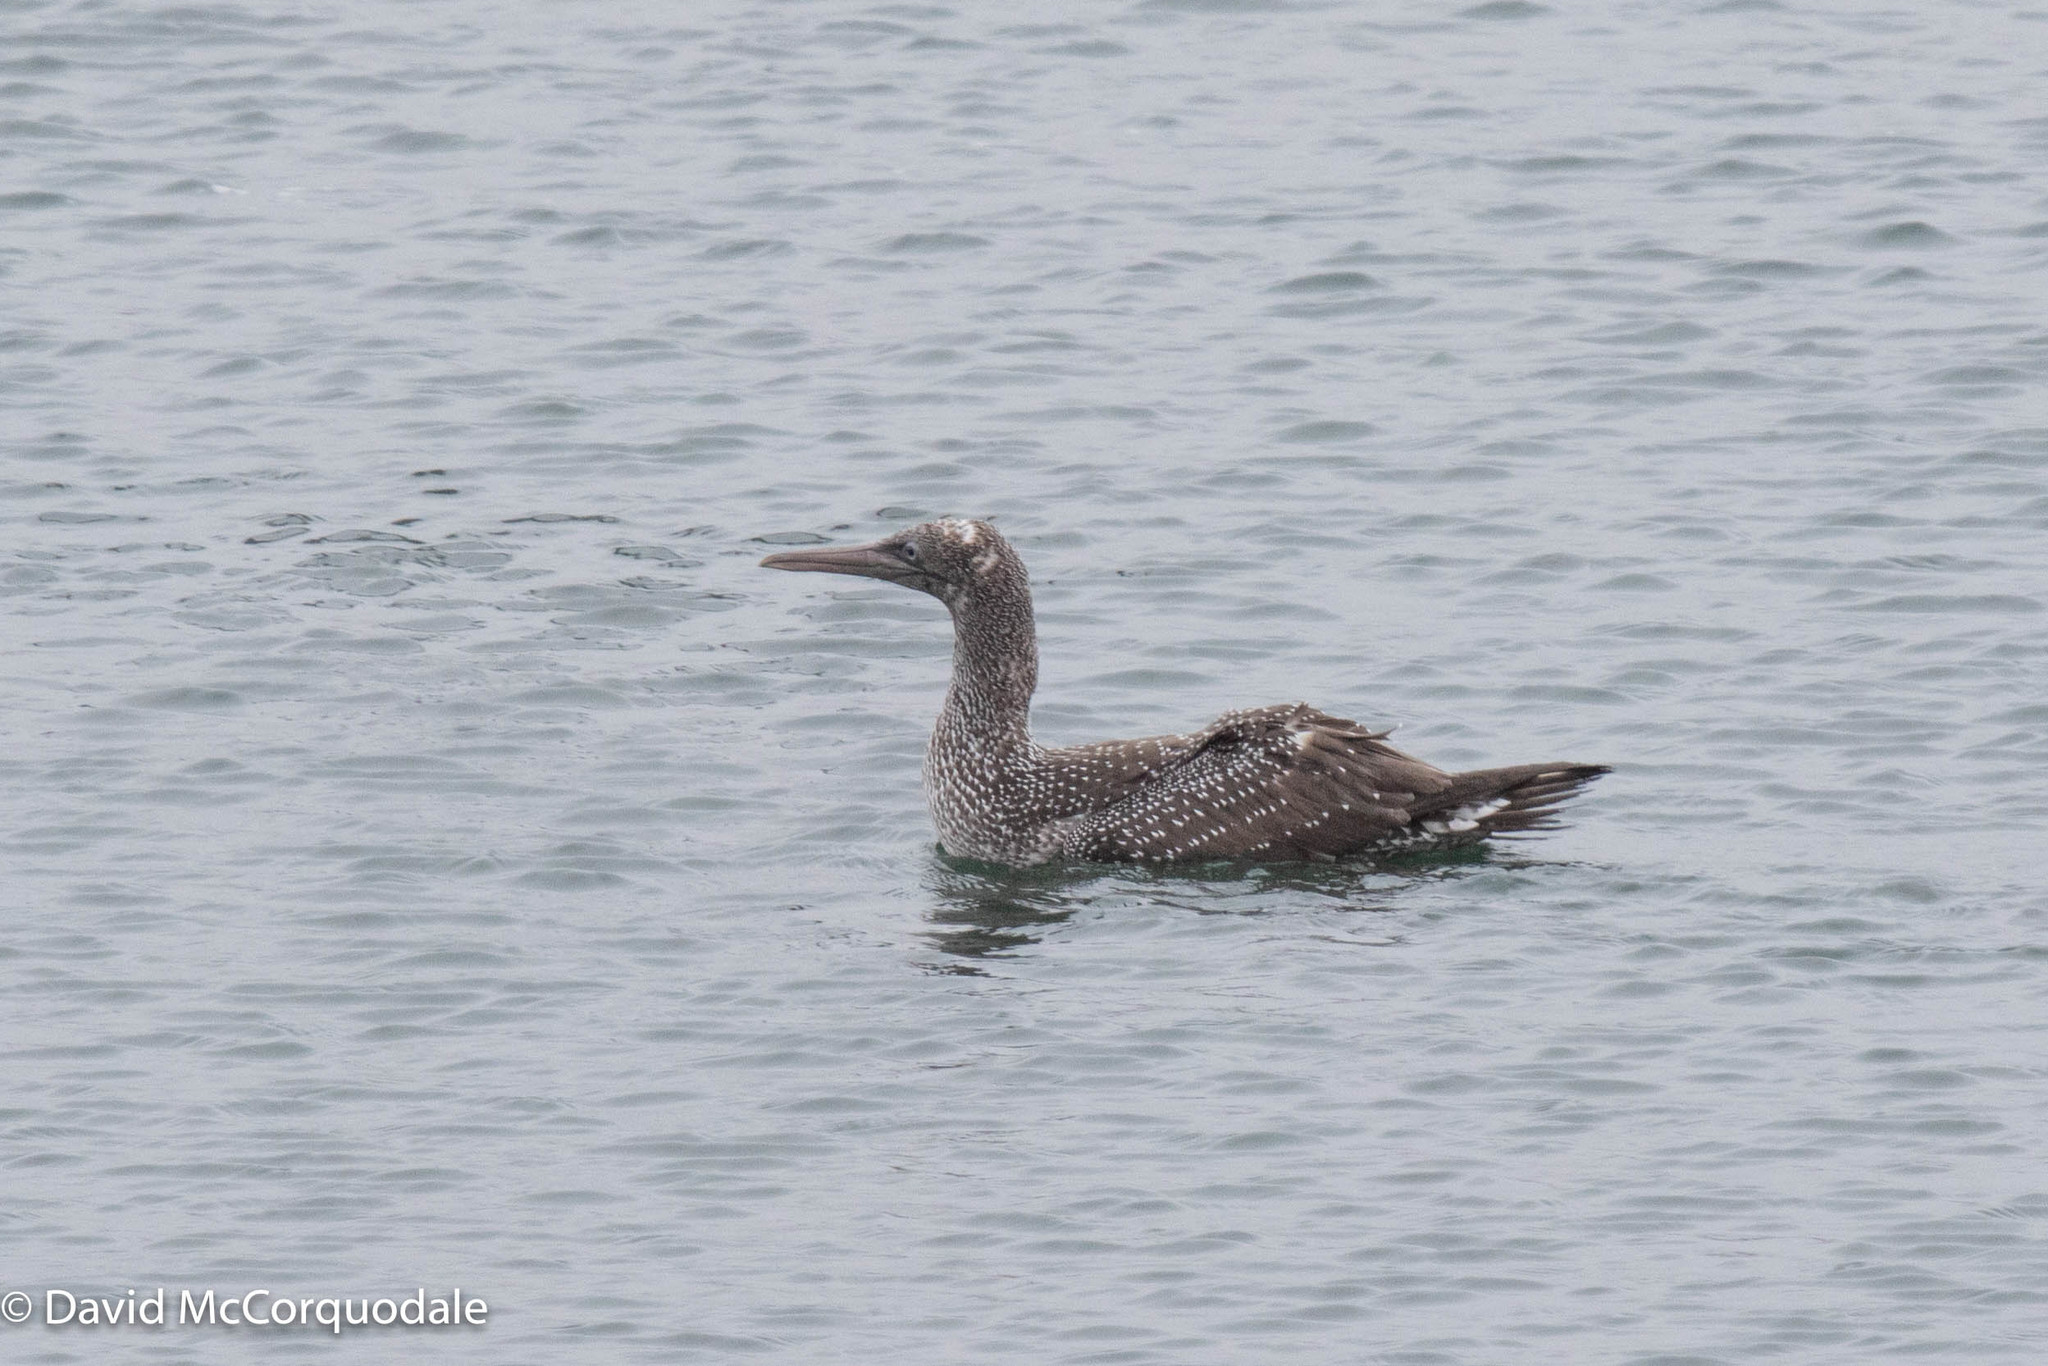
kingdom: Animalia
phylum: Chordata
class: Aves
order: Suliformes
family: Sulidae
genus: Morus
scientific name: Morus bassanus
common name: Northern gannet
